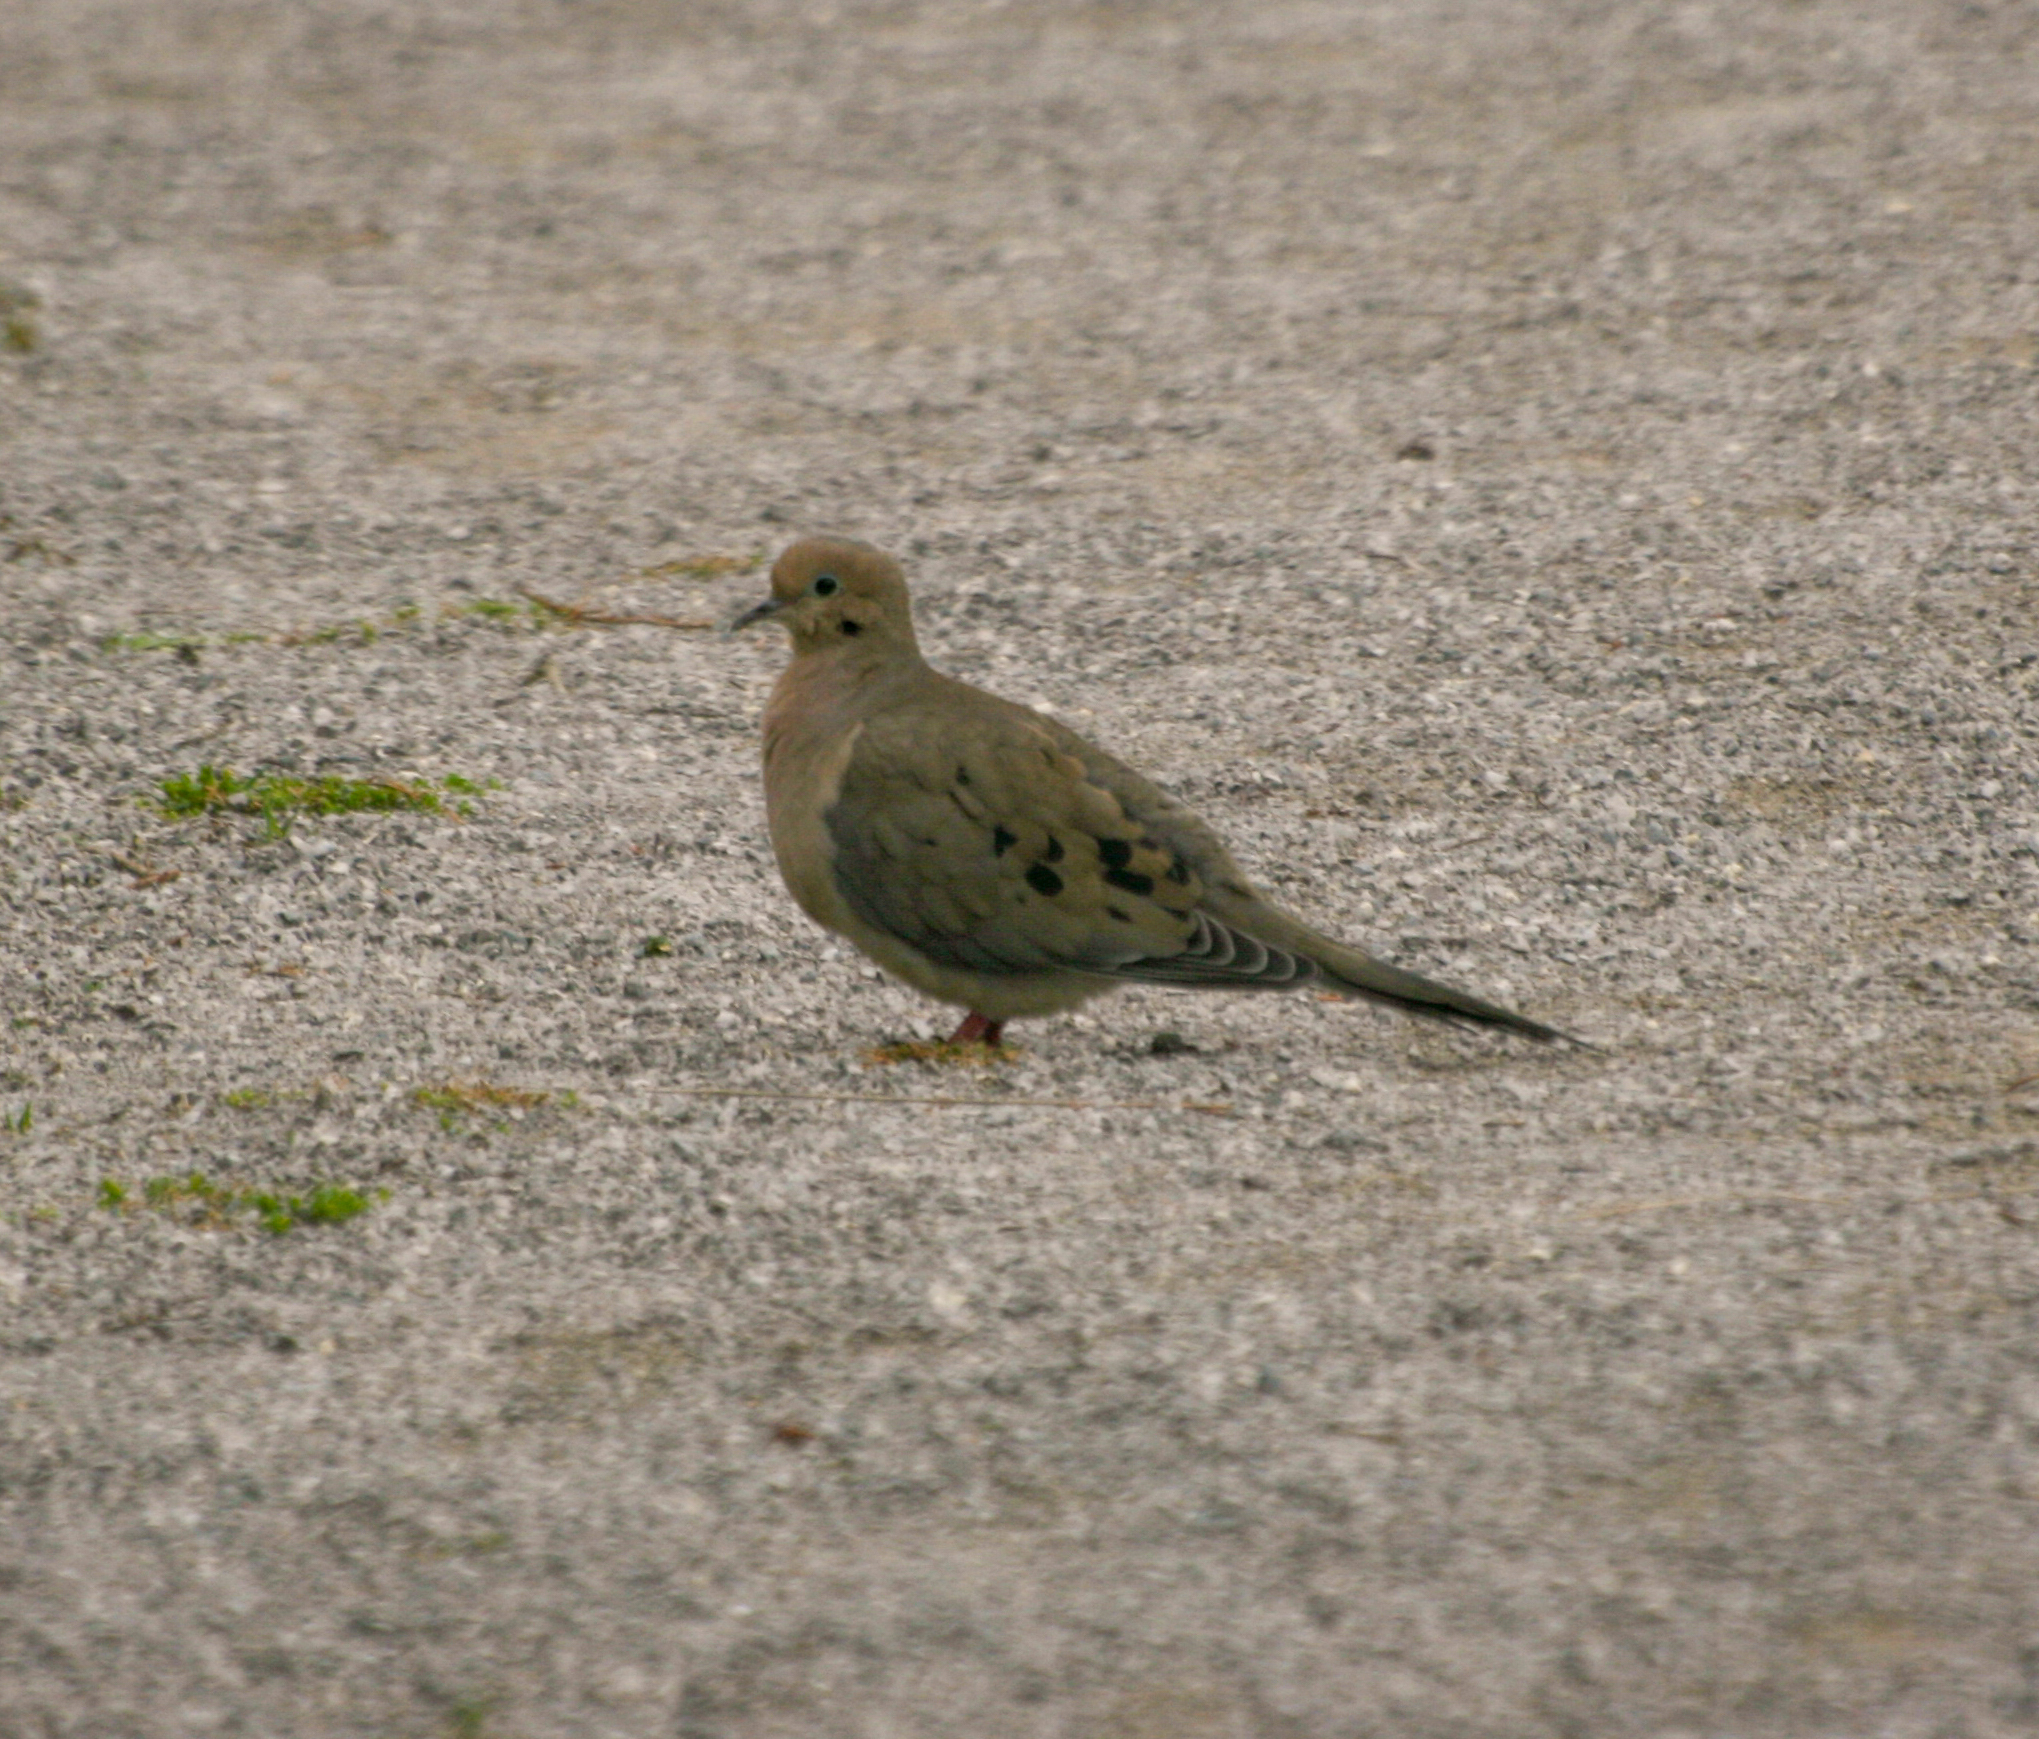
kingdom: Animalia
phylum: Chordata
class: Aves
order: Columbiformes
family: Columbidae
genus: Zenaida
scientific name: Zenaida macroura
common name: Mourning dove
